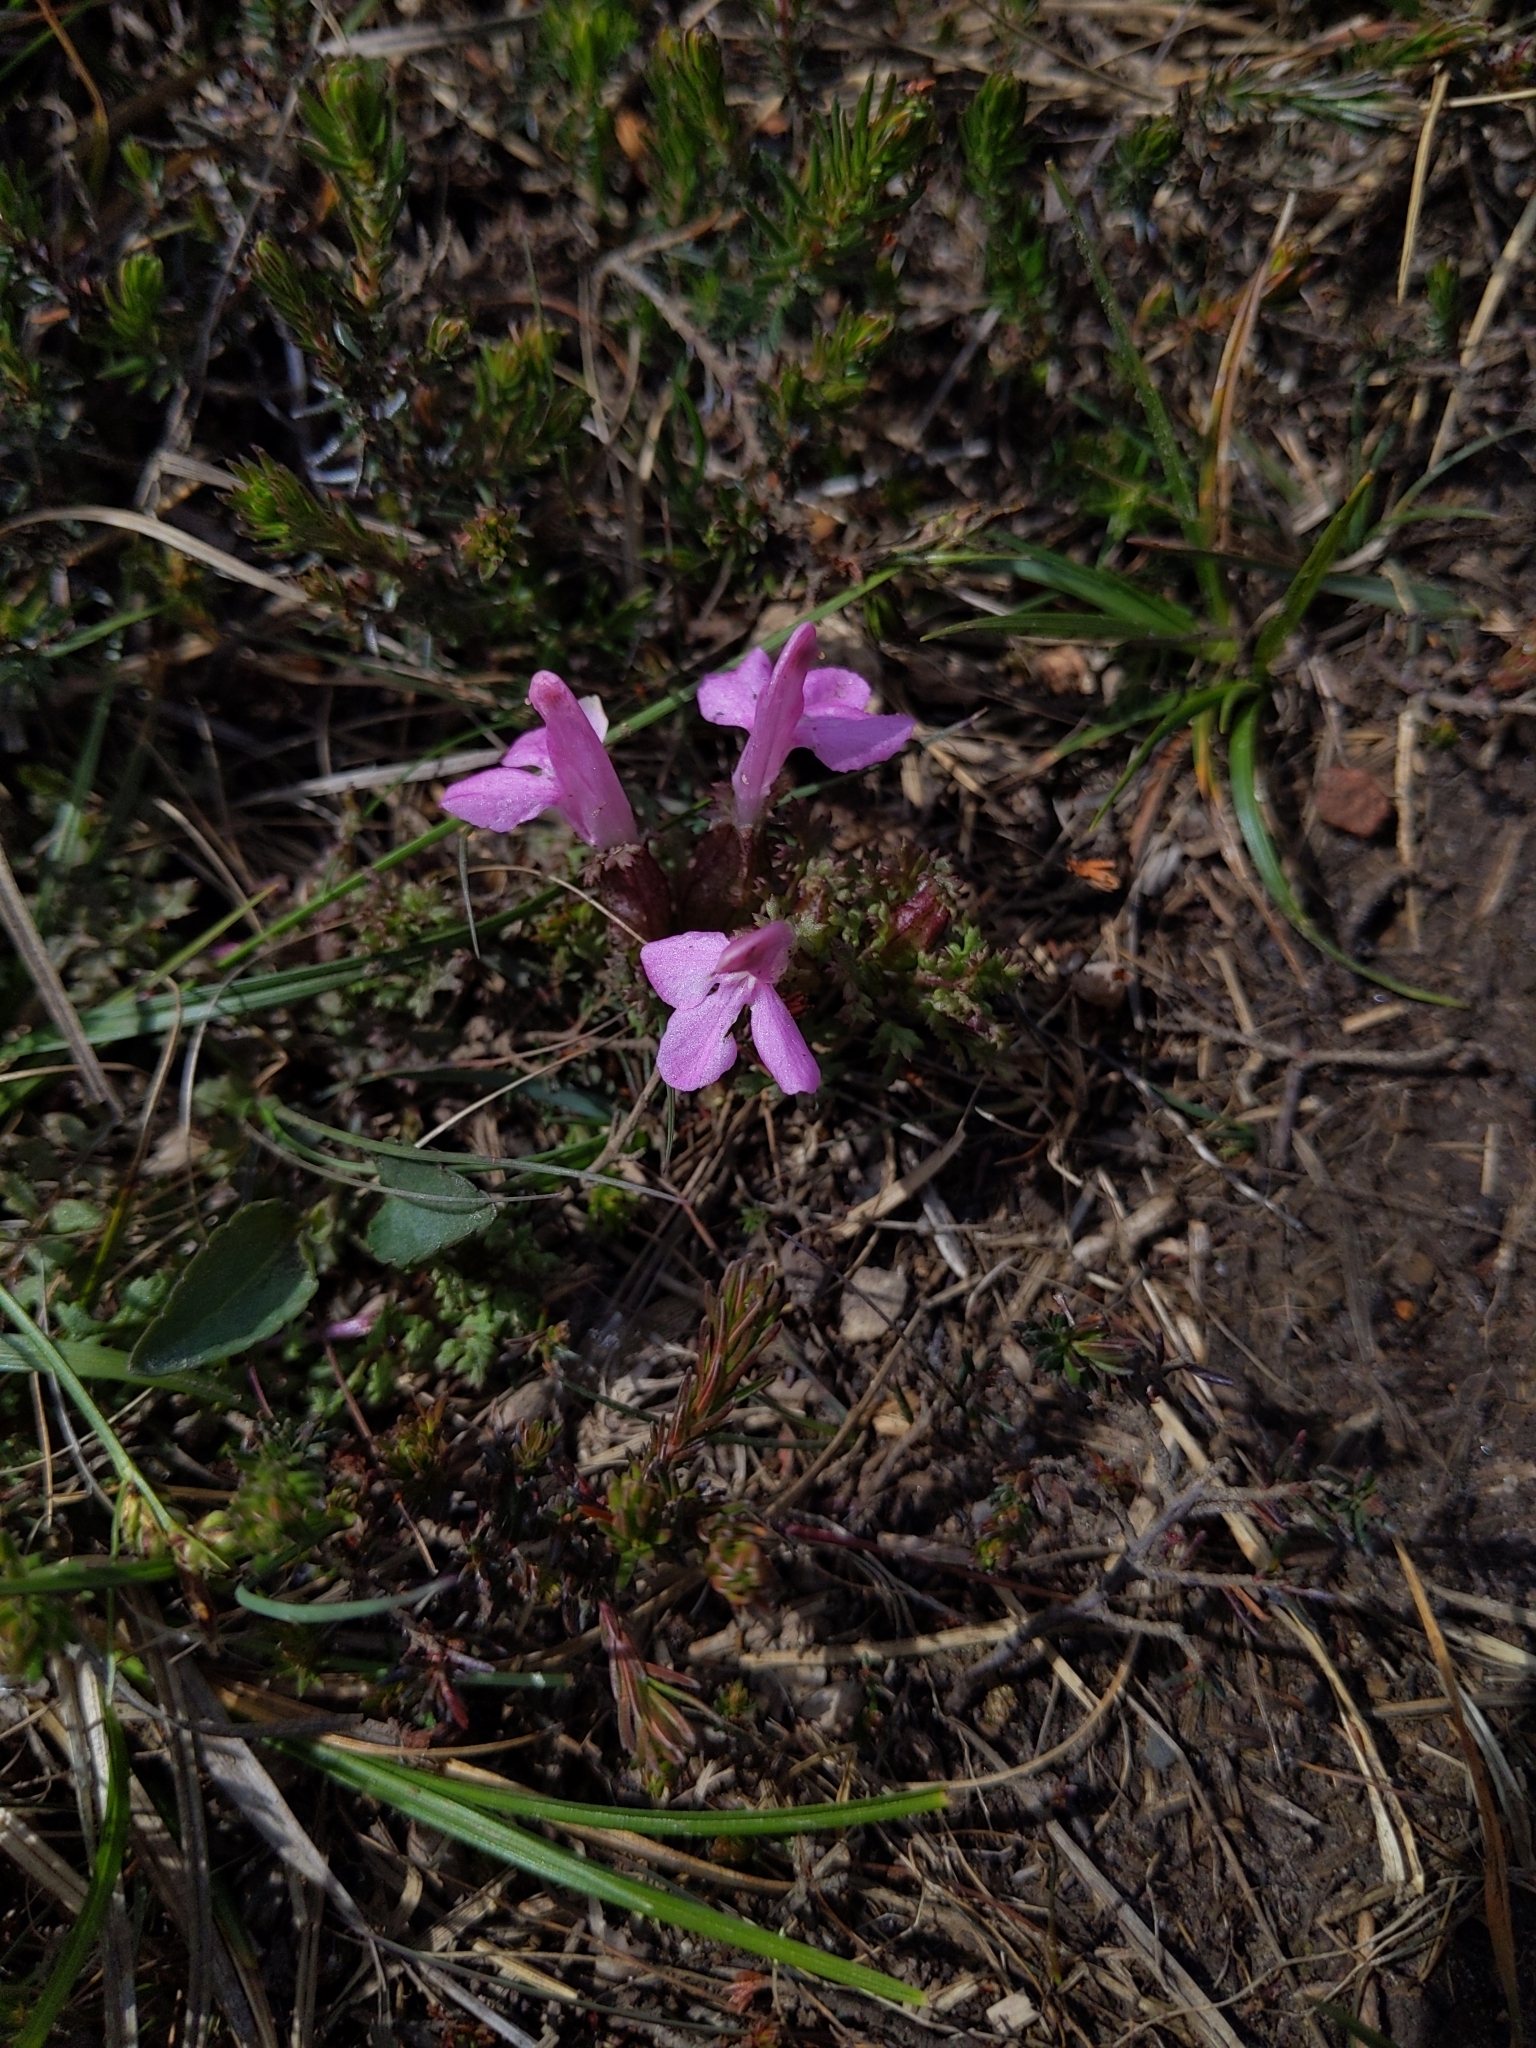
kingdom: Plantae
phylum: Tracheophyta
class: Magnoliopsida
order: Lamiales
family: Orobanchaceae
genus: Pedicularis
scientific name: Pedicularis sylvatica
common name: Lousewort
